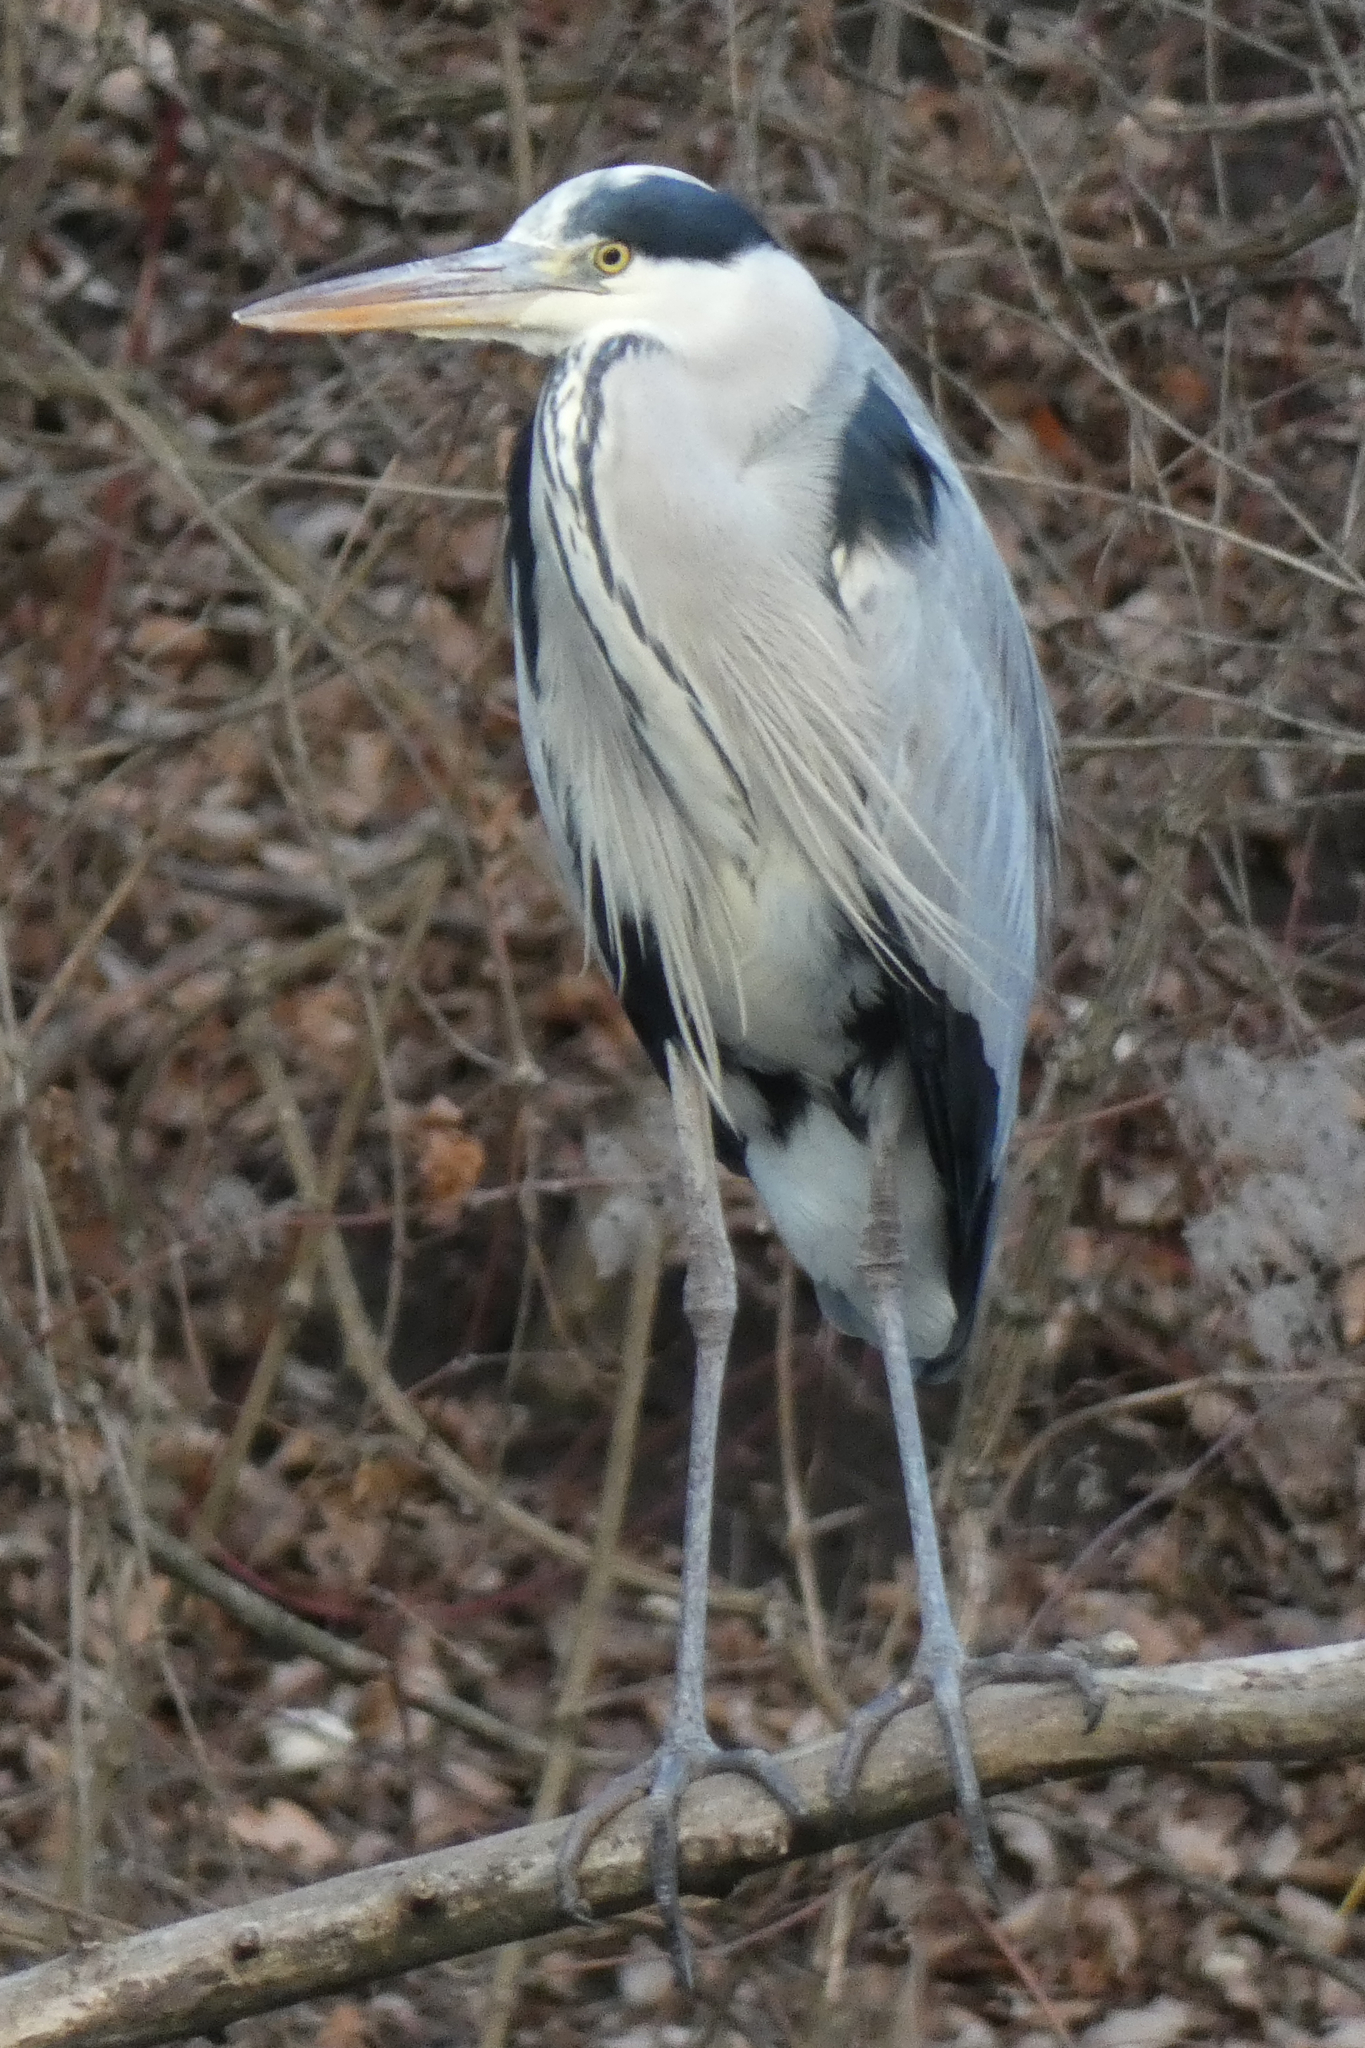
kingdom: Animalia
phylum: Chordata
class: Aves
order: Pelecaniformes
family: Ardeidae
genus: Ardea
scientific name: Ardea cinerea
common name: Grey heron
